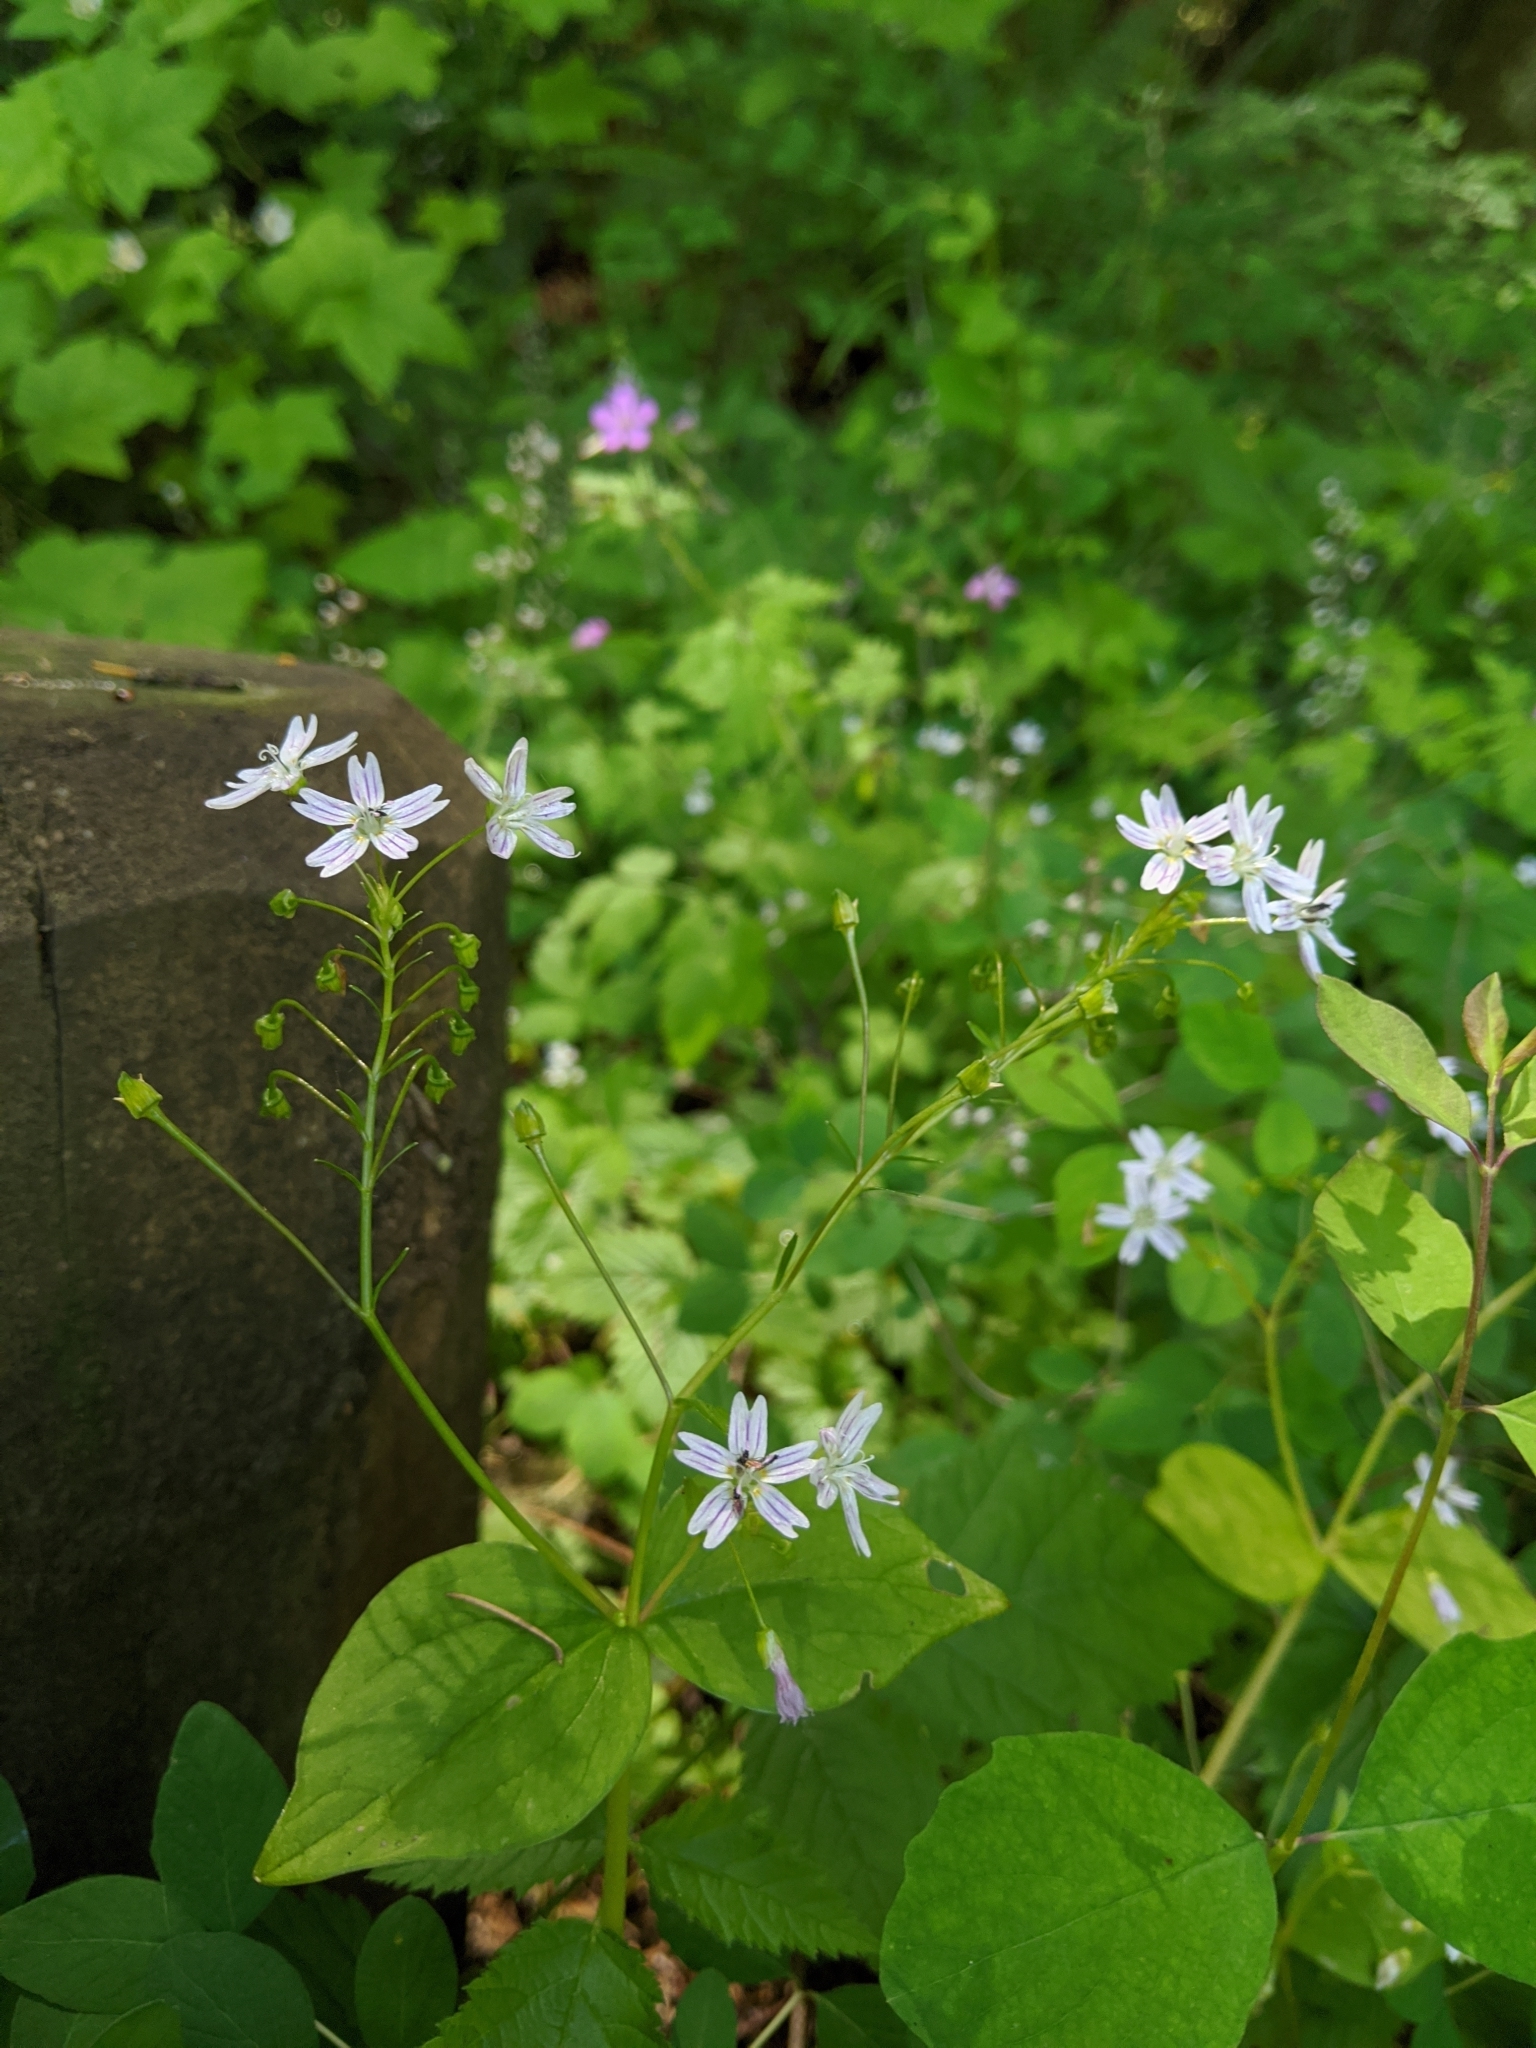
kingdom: Plantae
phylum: Tracheophyta
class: Magnoliopsida
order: Caryophyllales
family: Montiaceae
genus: Claytonia
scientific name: Claytonia sibirica
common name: Pink purslane
